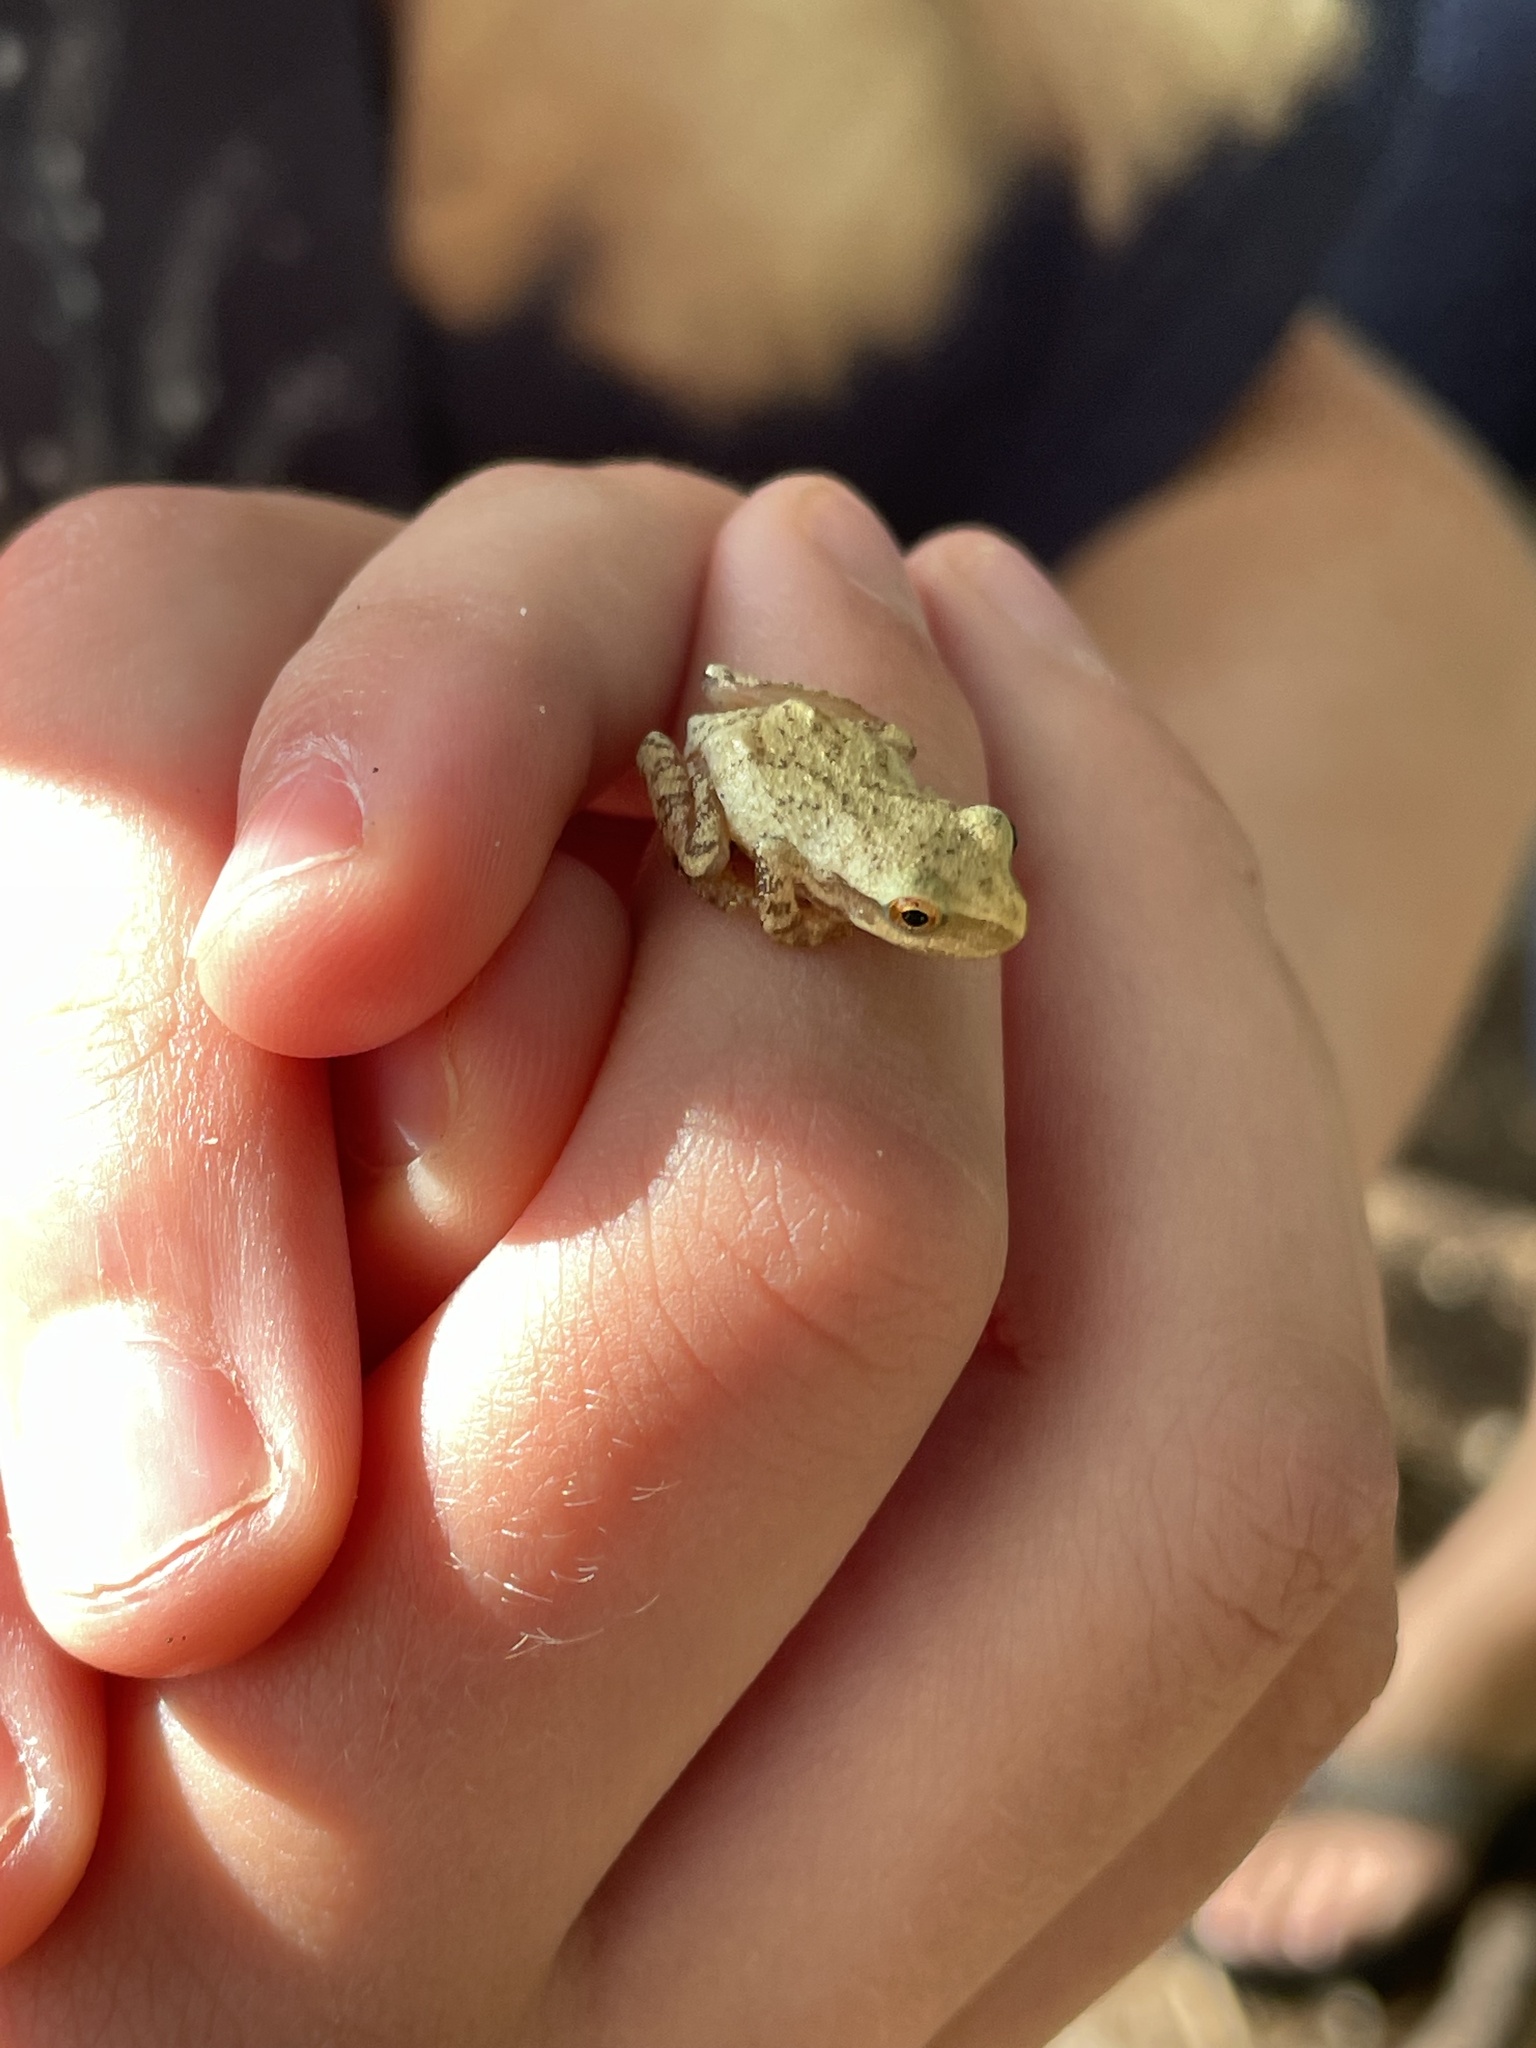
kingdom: Animalia
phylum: Chordata
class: Amphibia
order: Anura
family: Hylidae
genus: Pseudacris
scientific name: Pseudacris crucifer
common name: Spring peeper
